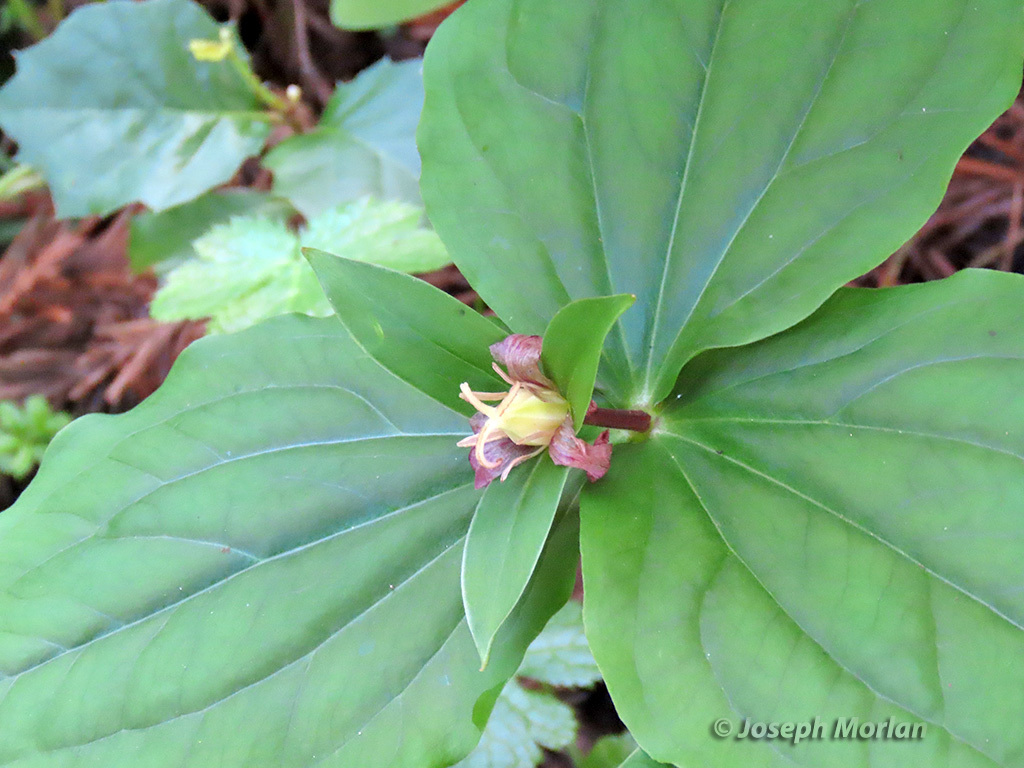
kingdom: Plantae
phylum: Tracheophyta
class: Liliopsida
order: Liliales
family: Melanthiaceae
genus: Trillium
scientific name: Trillium ovatum
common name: Pacific trillium
